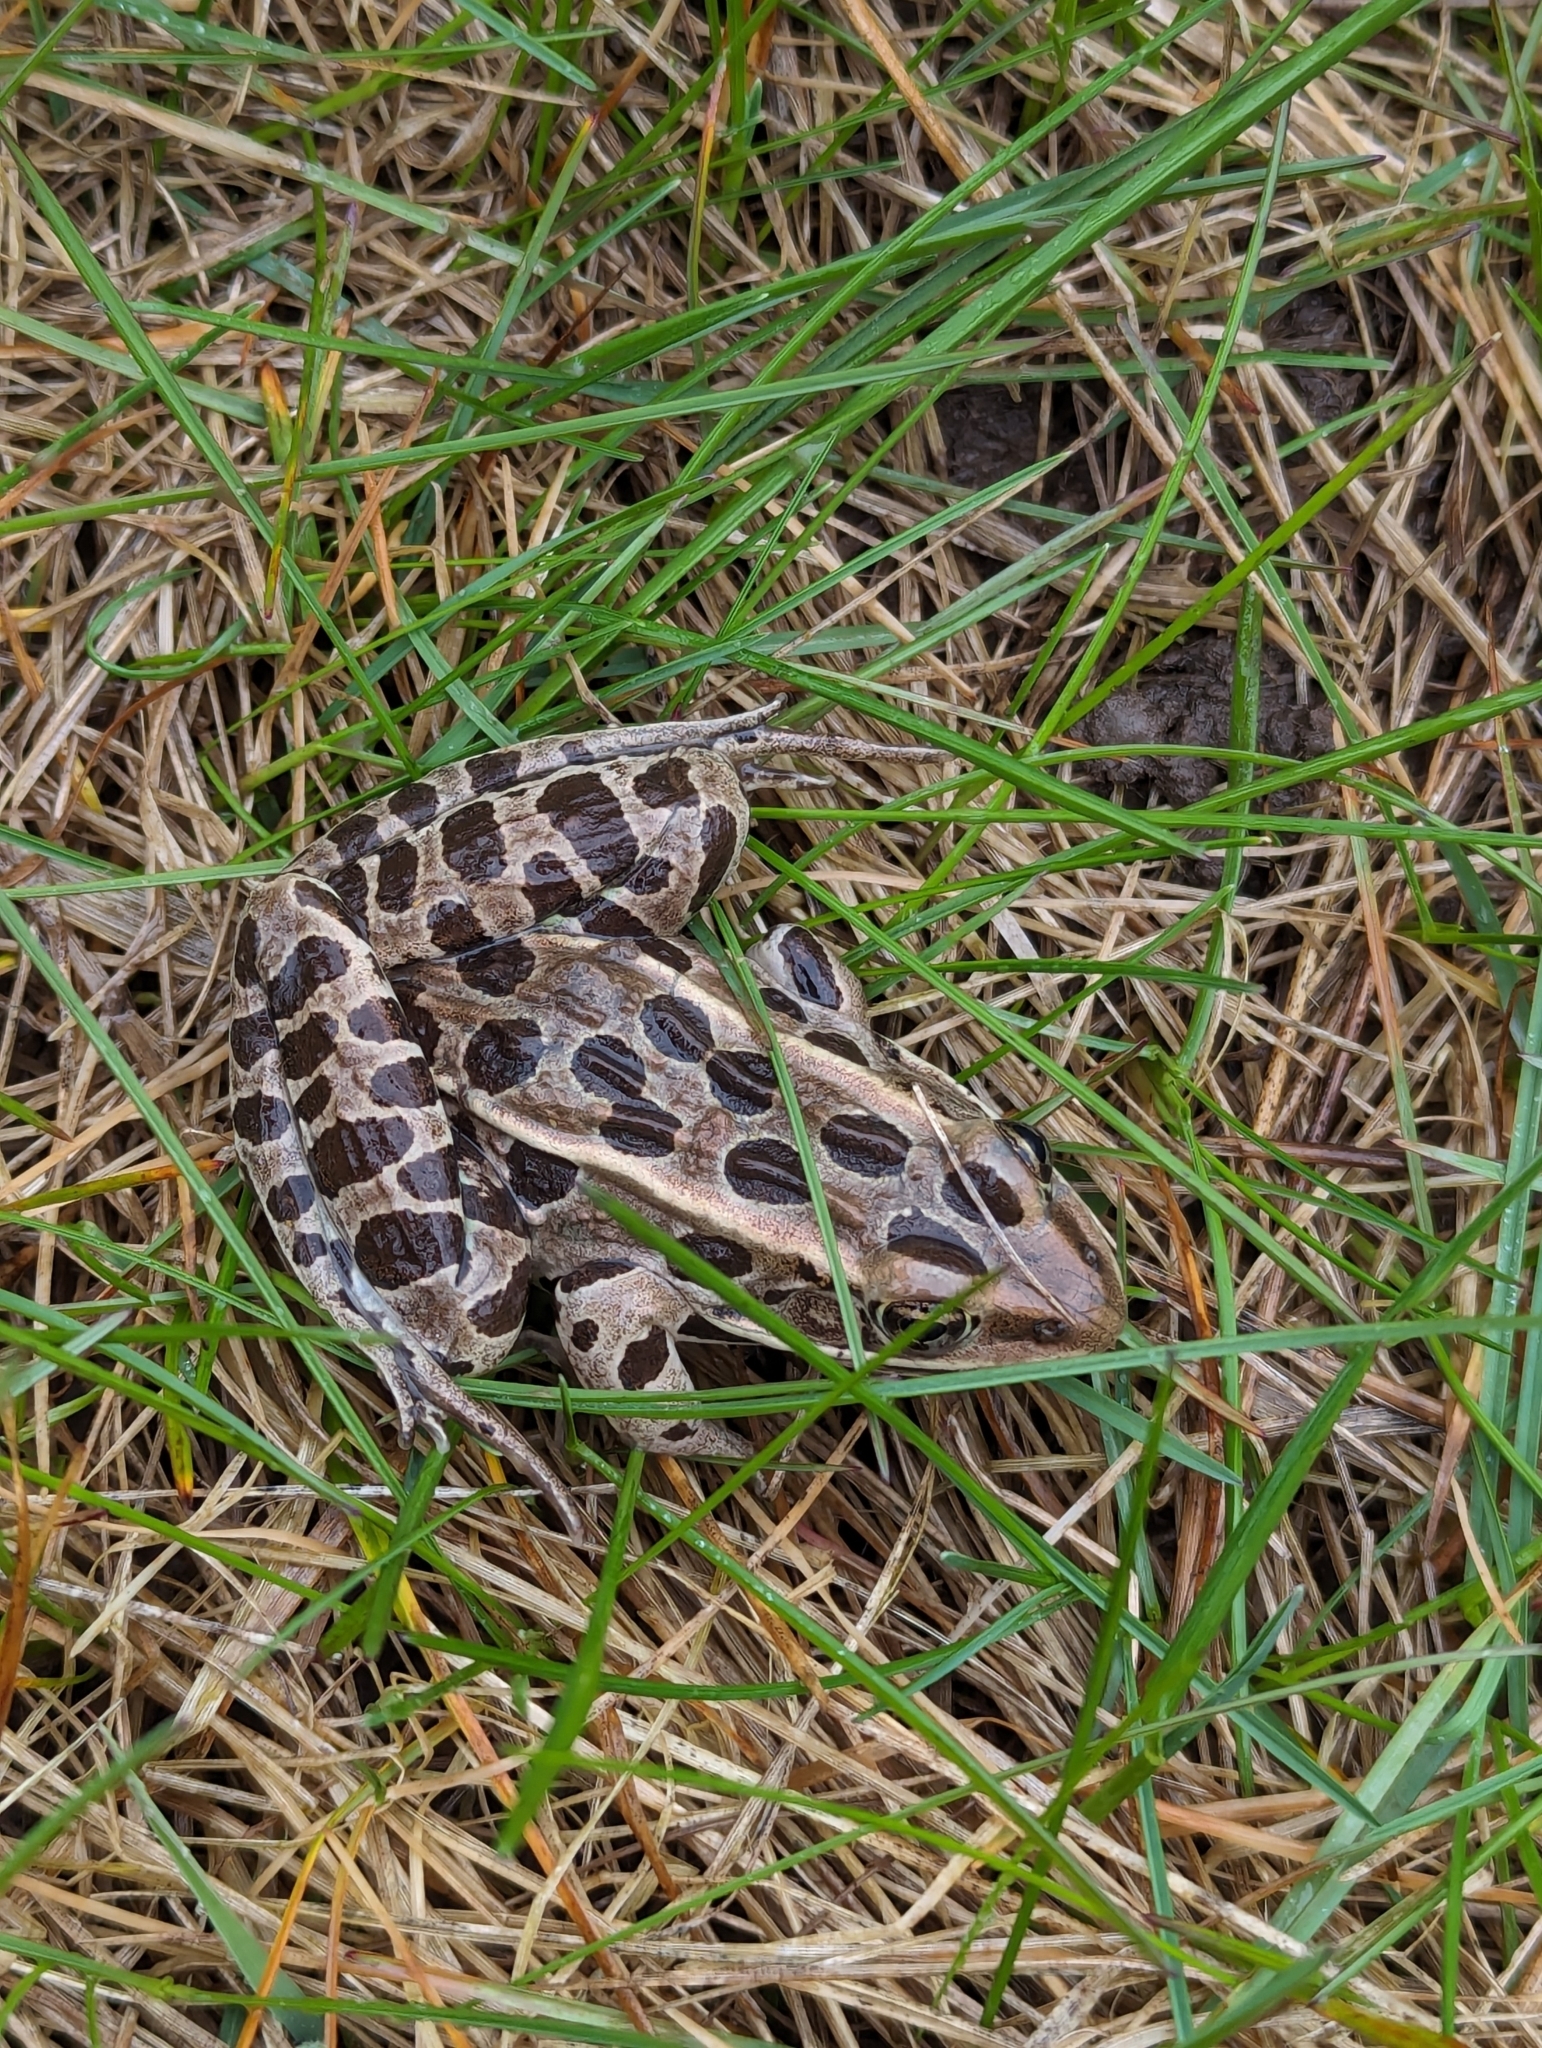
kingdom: Animalia
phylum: Chordata
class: Amphibia
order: Anura
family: Ranidae
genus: Lithobates
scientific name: Lithobates pipiens
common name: Northern leopard frog
